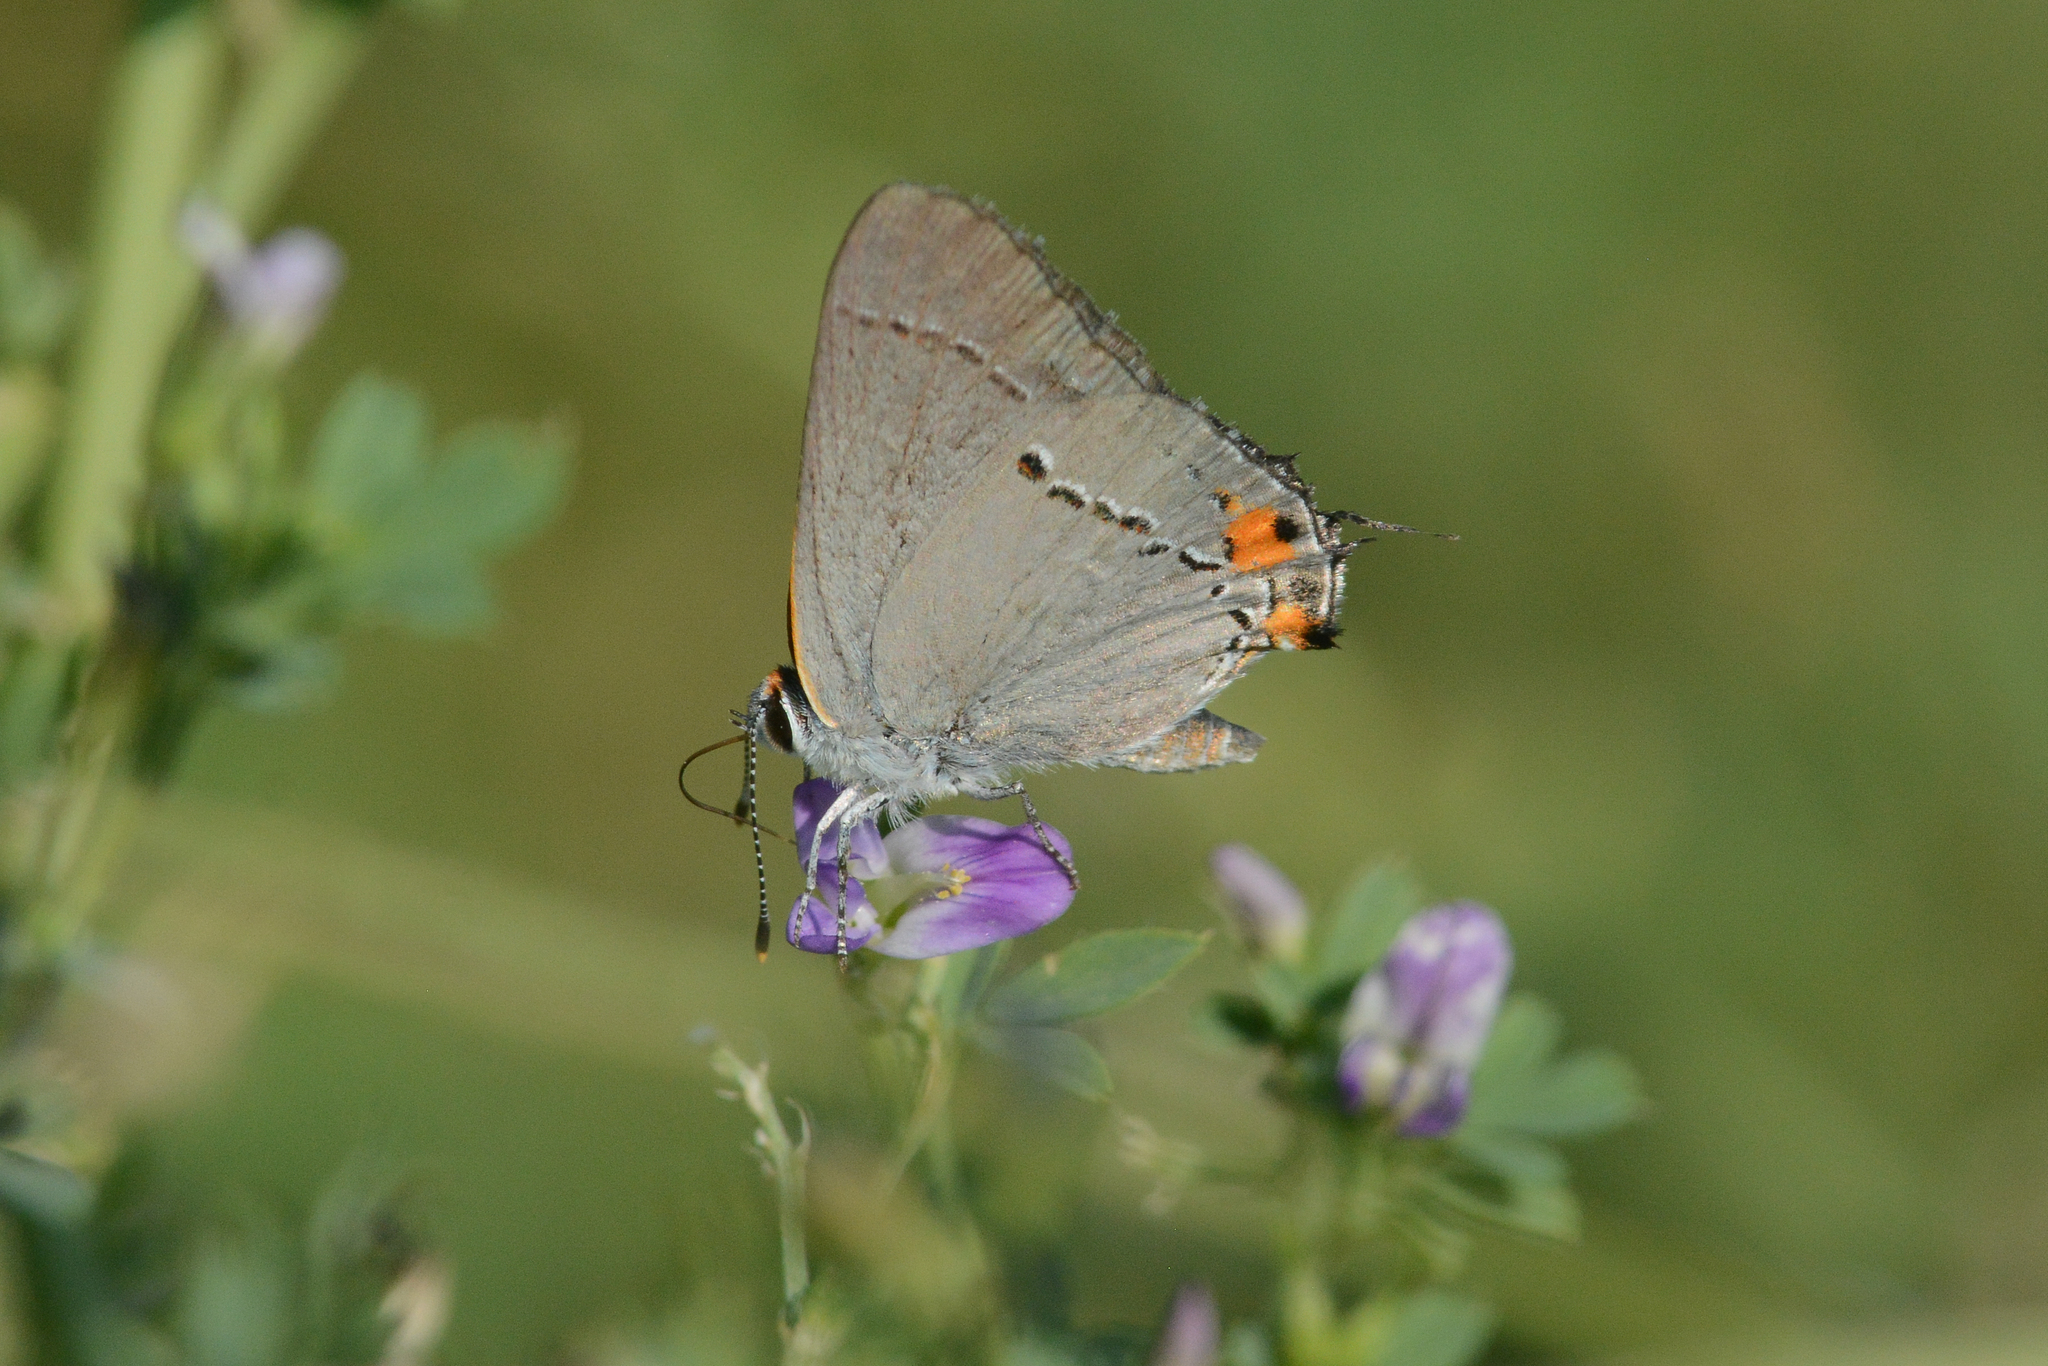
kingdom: Animalia
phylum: Arthropoda
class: Insecta
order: Lepidoptera
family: Lycaenidae
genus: Strymon
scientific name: Strymon melinus
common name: Gray hairstreak
